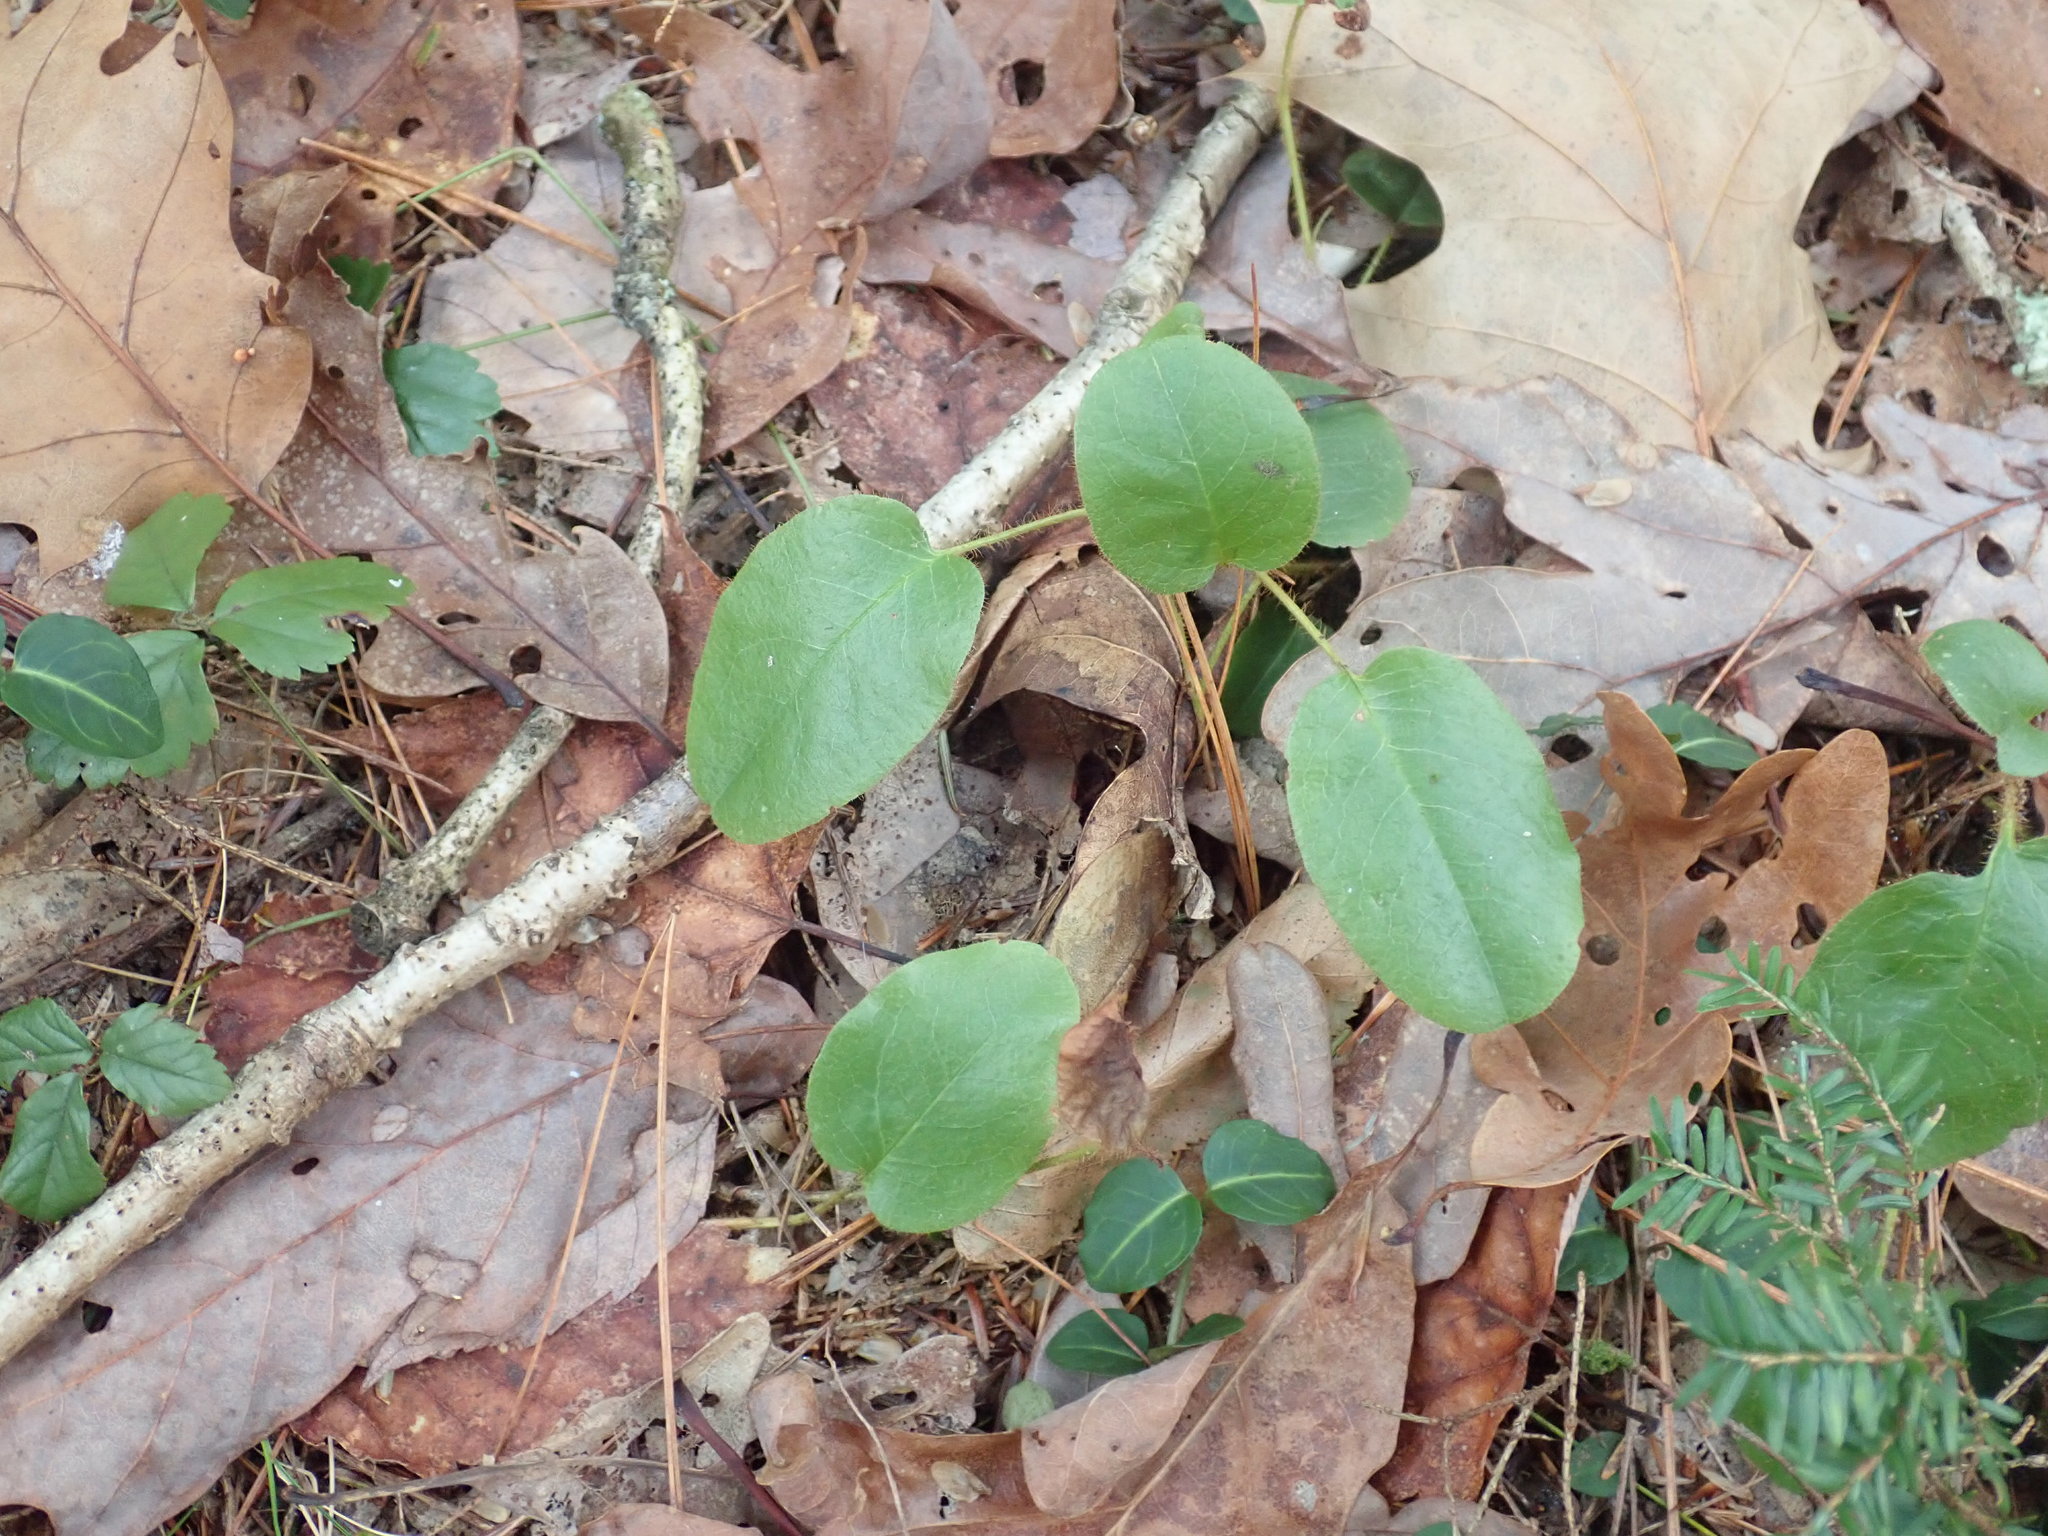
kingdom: Plantae
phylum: Tracheophyta
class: Magnoliopsida
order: Ericales
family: Ericaceae
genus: Epigaea
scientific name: Epigaea repens
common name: Gravelroot
